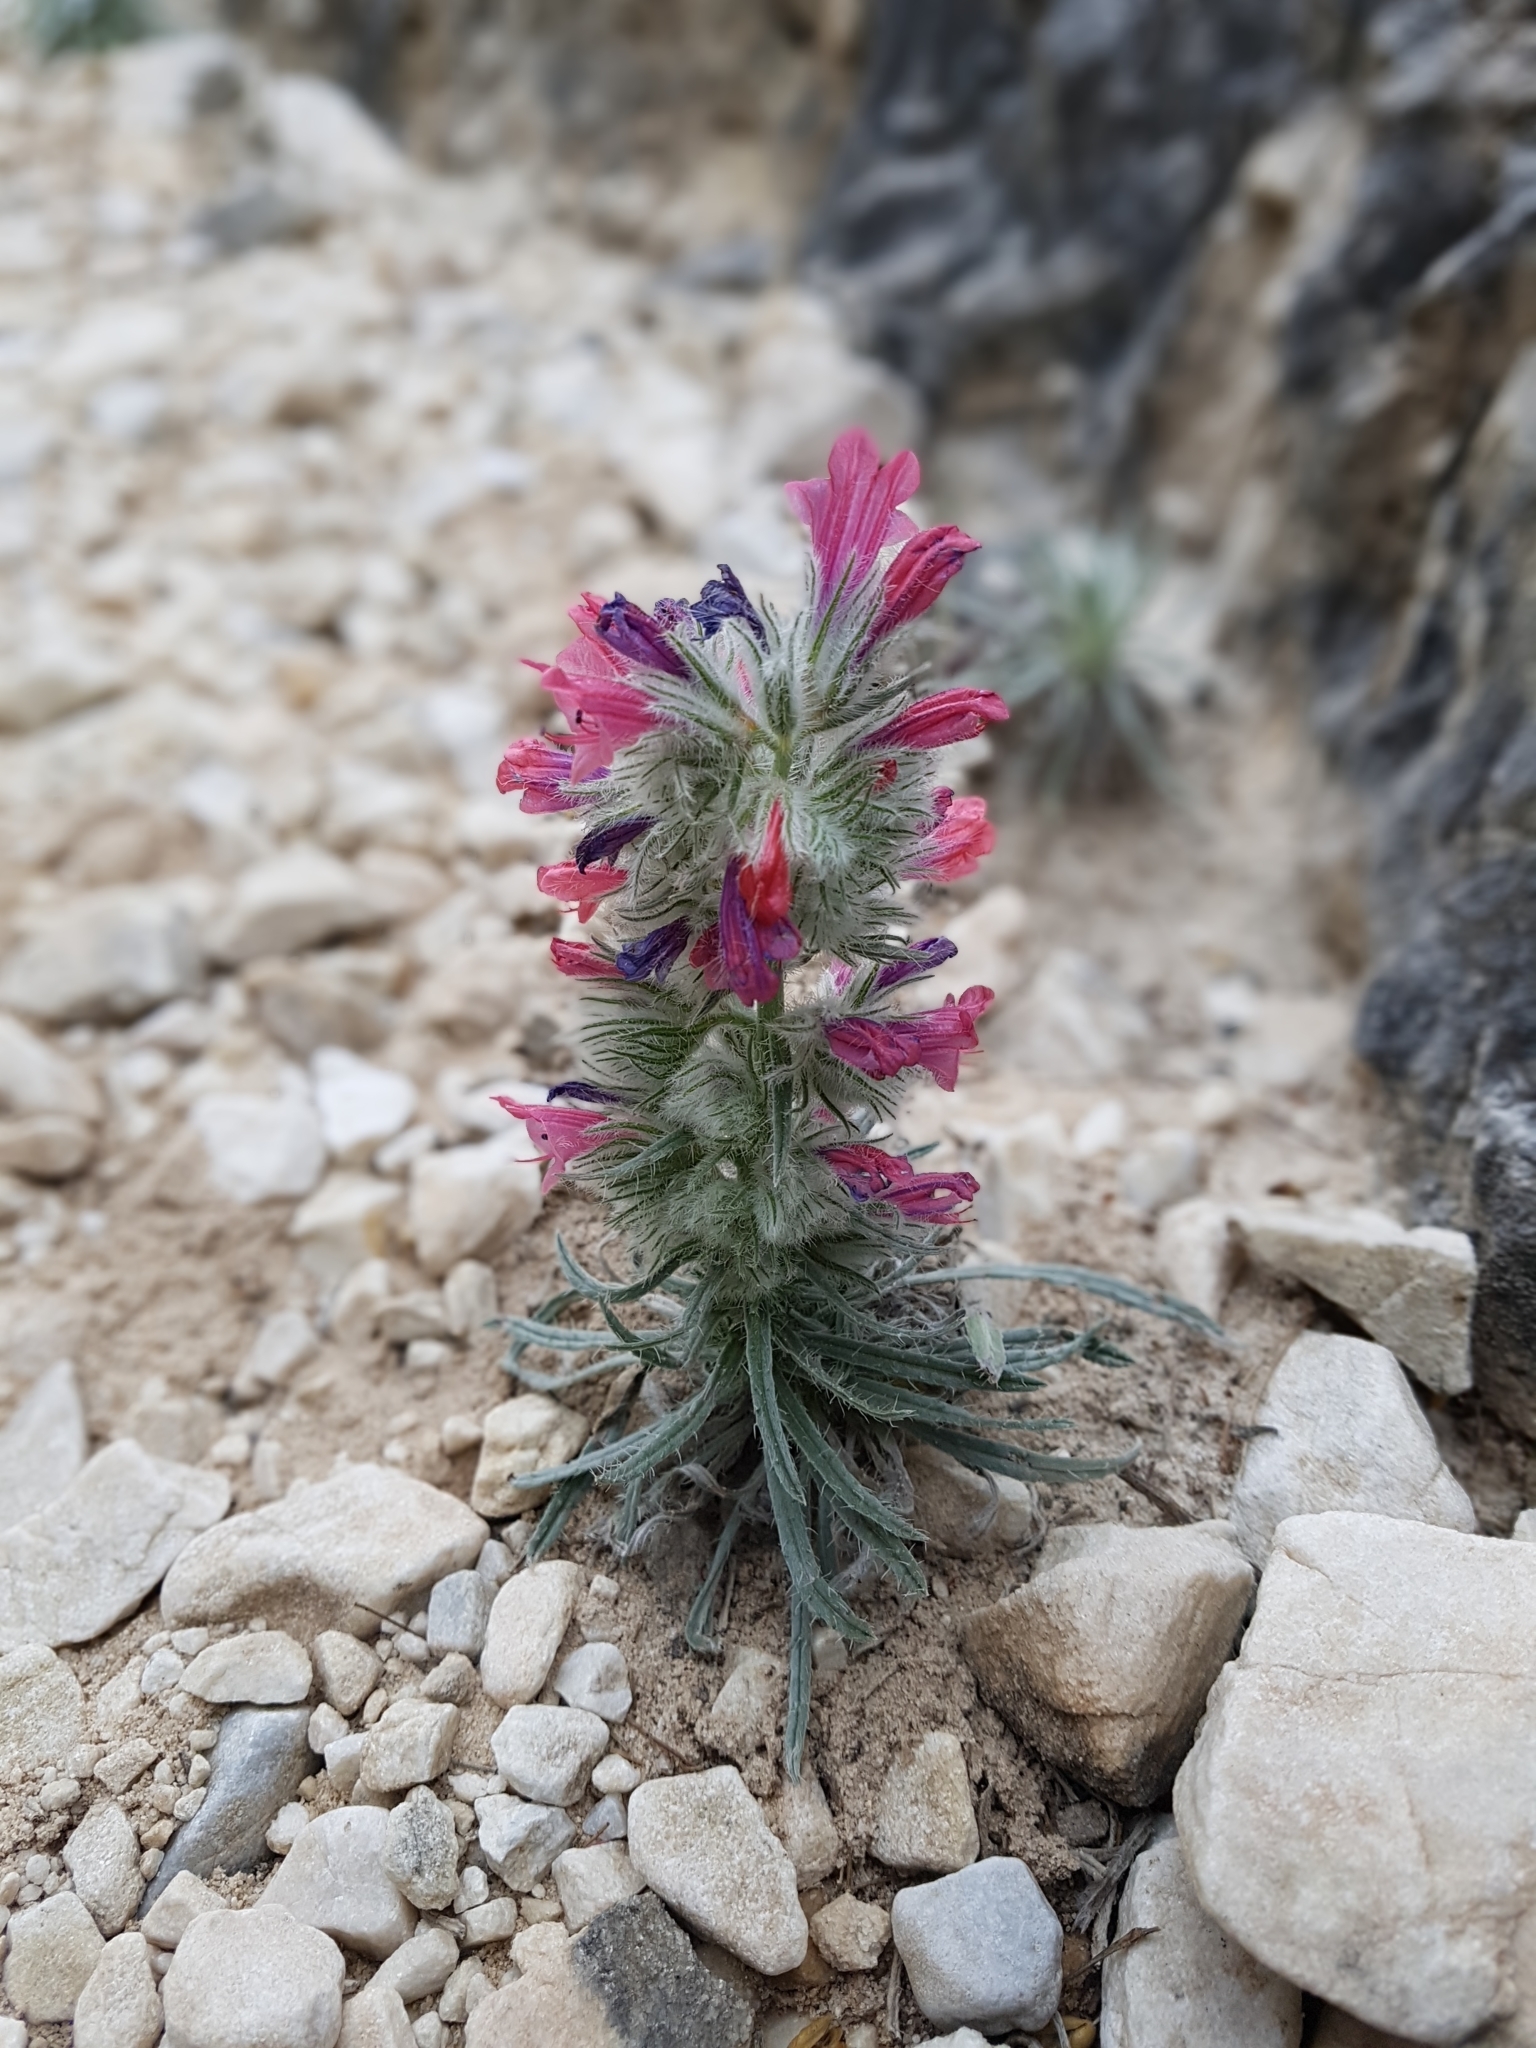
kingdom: Plantae
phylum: Tracheophyta
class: Magnoliopsida
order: Boraginales
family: Boraginaceae
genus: Echium
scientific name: Echium albicans
